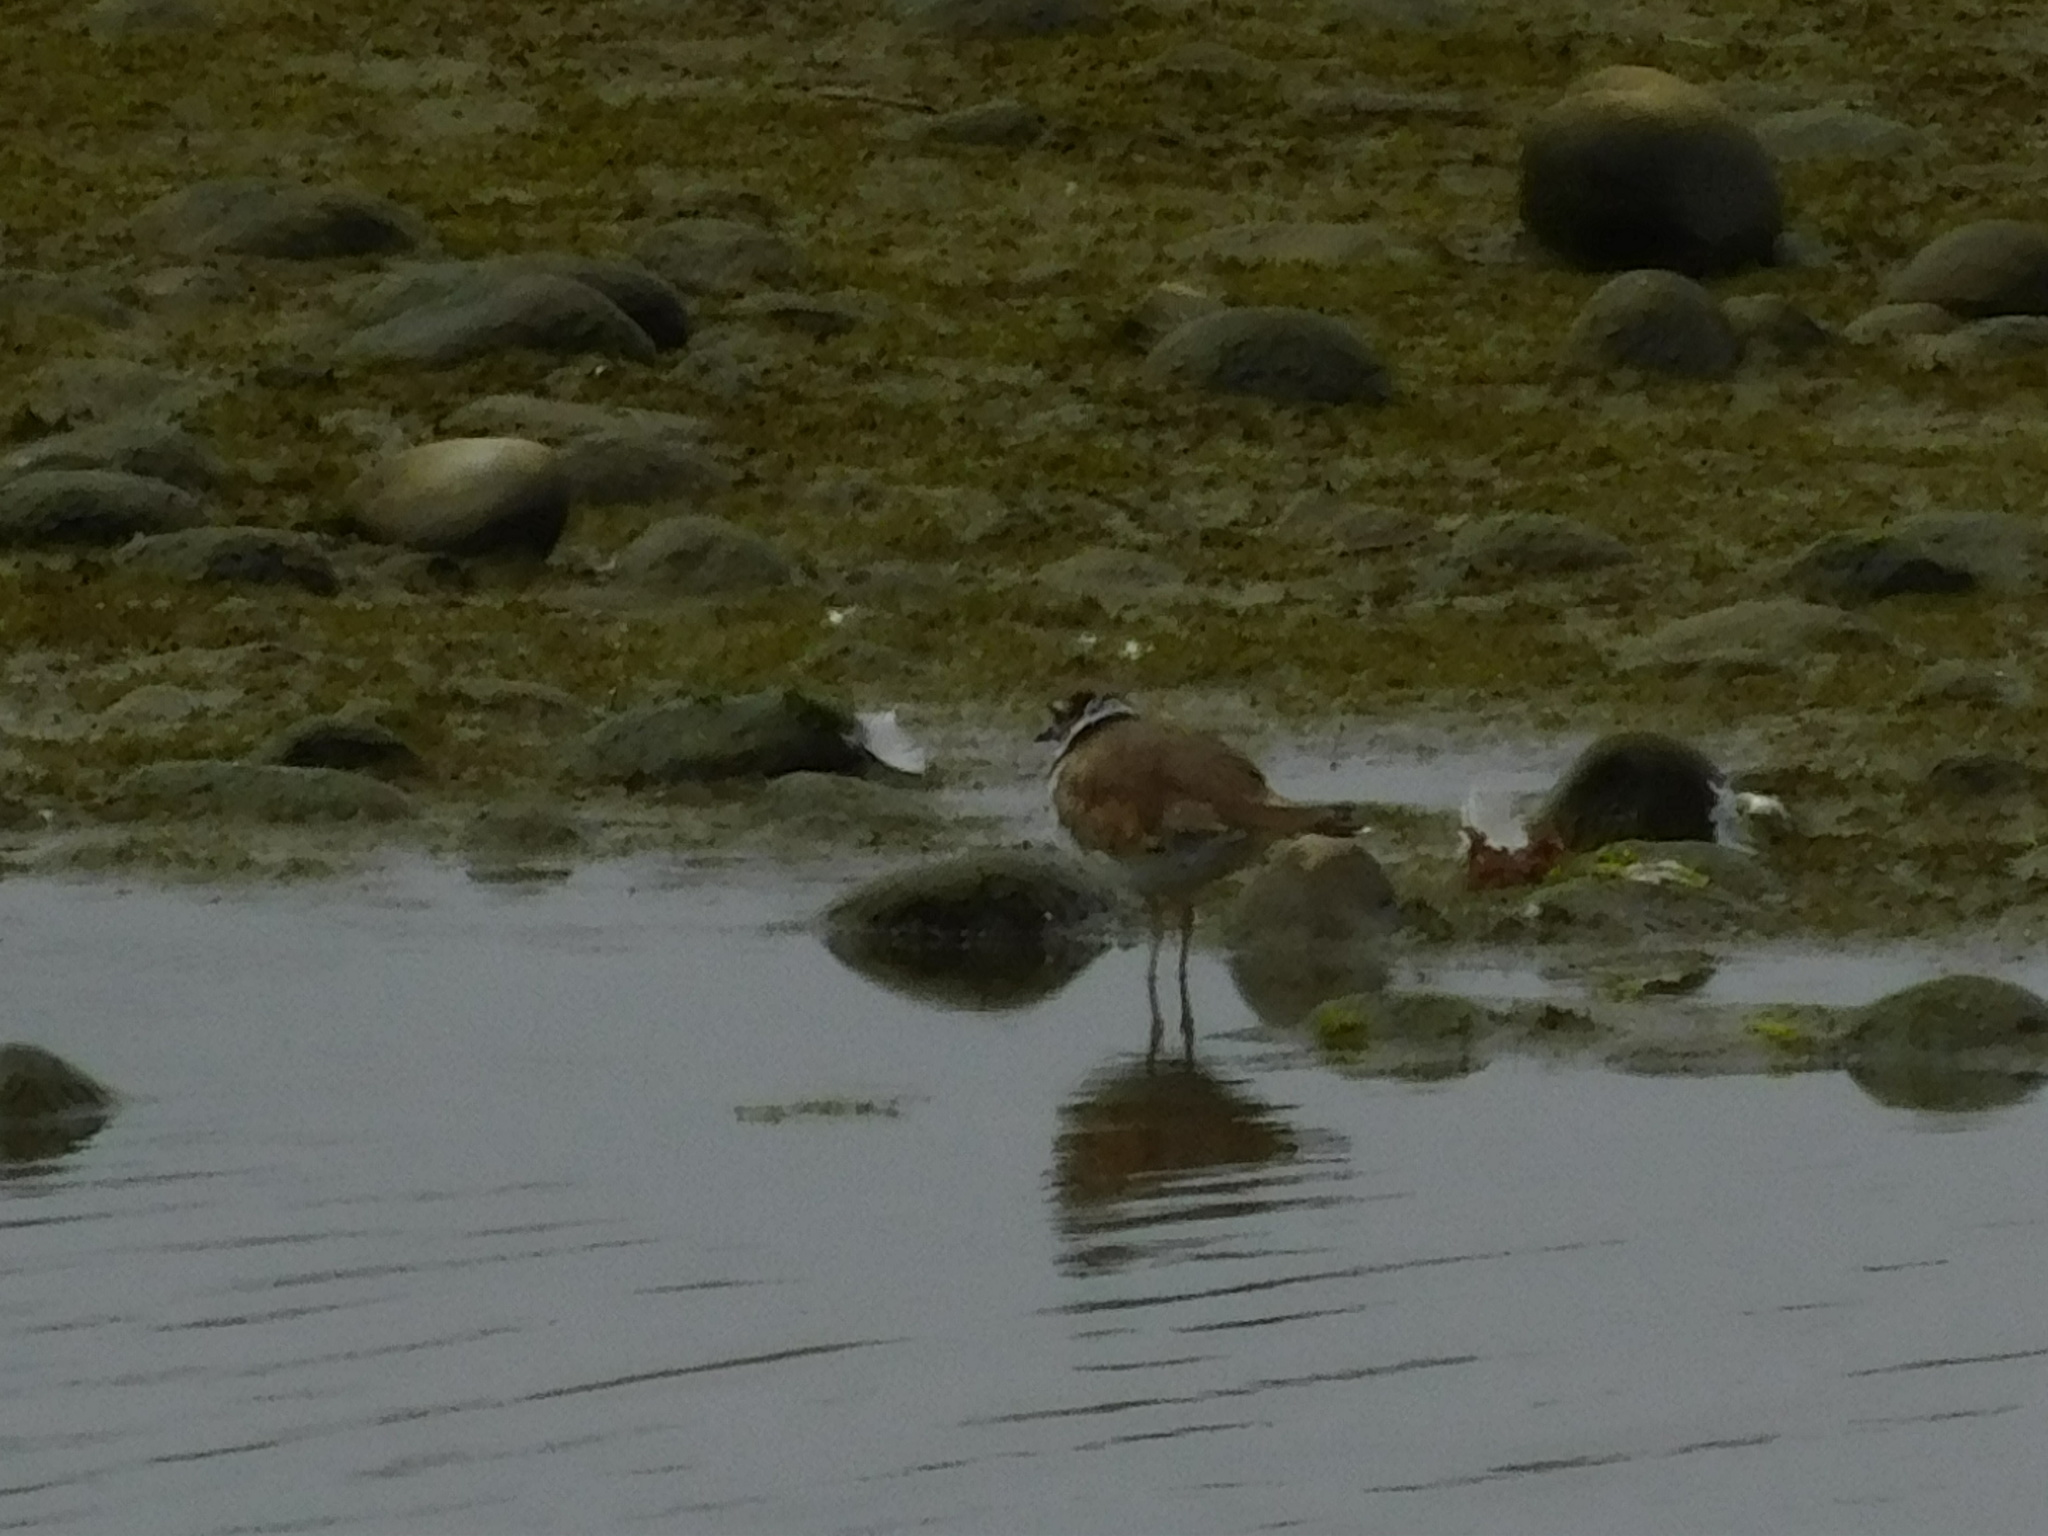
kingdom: Animalia
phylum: Chordata
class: Aves
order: Charadriiformes
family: Charadriidae
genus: Charadrius
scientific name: Charadrius vociferus
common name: Killdeer
